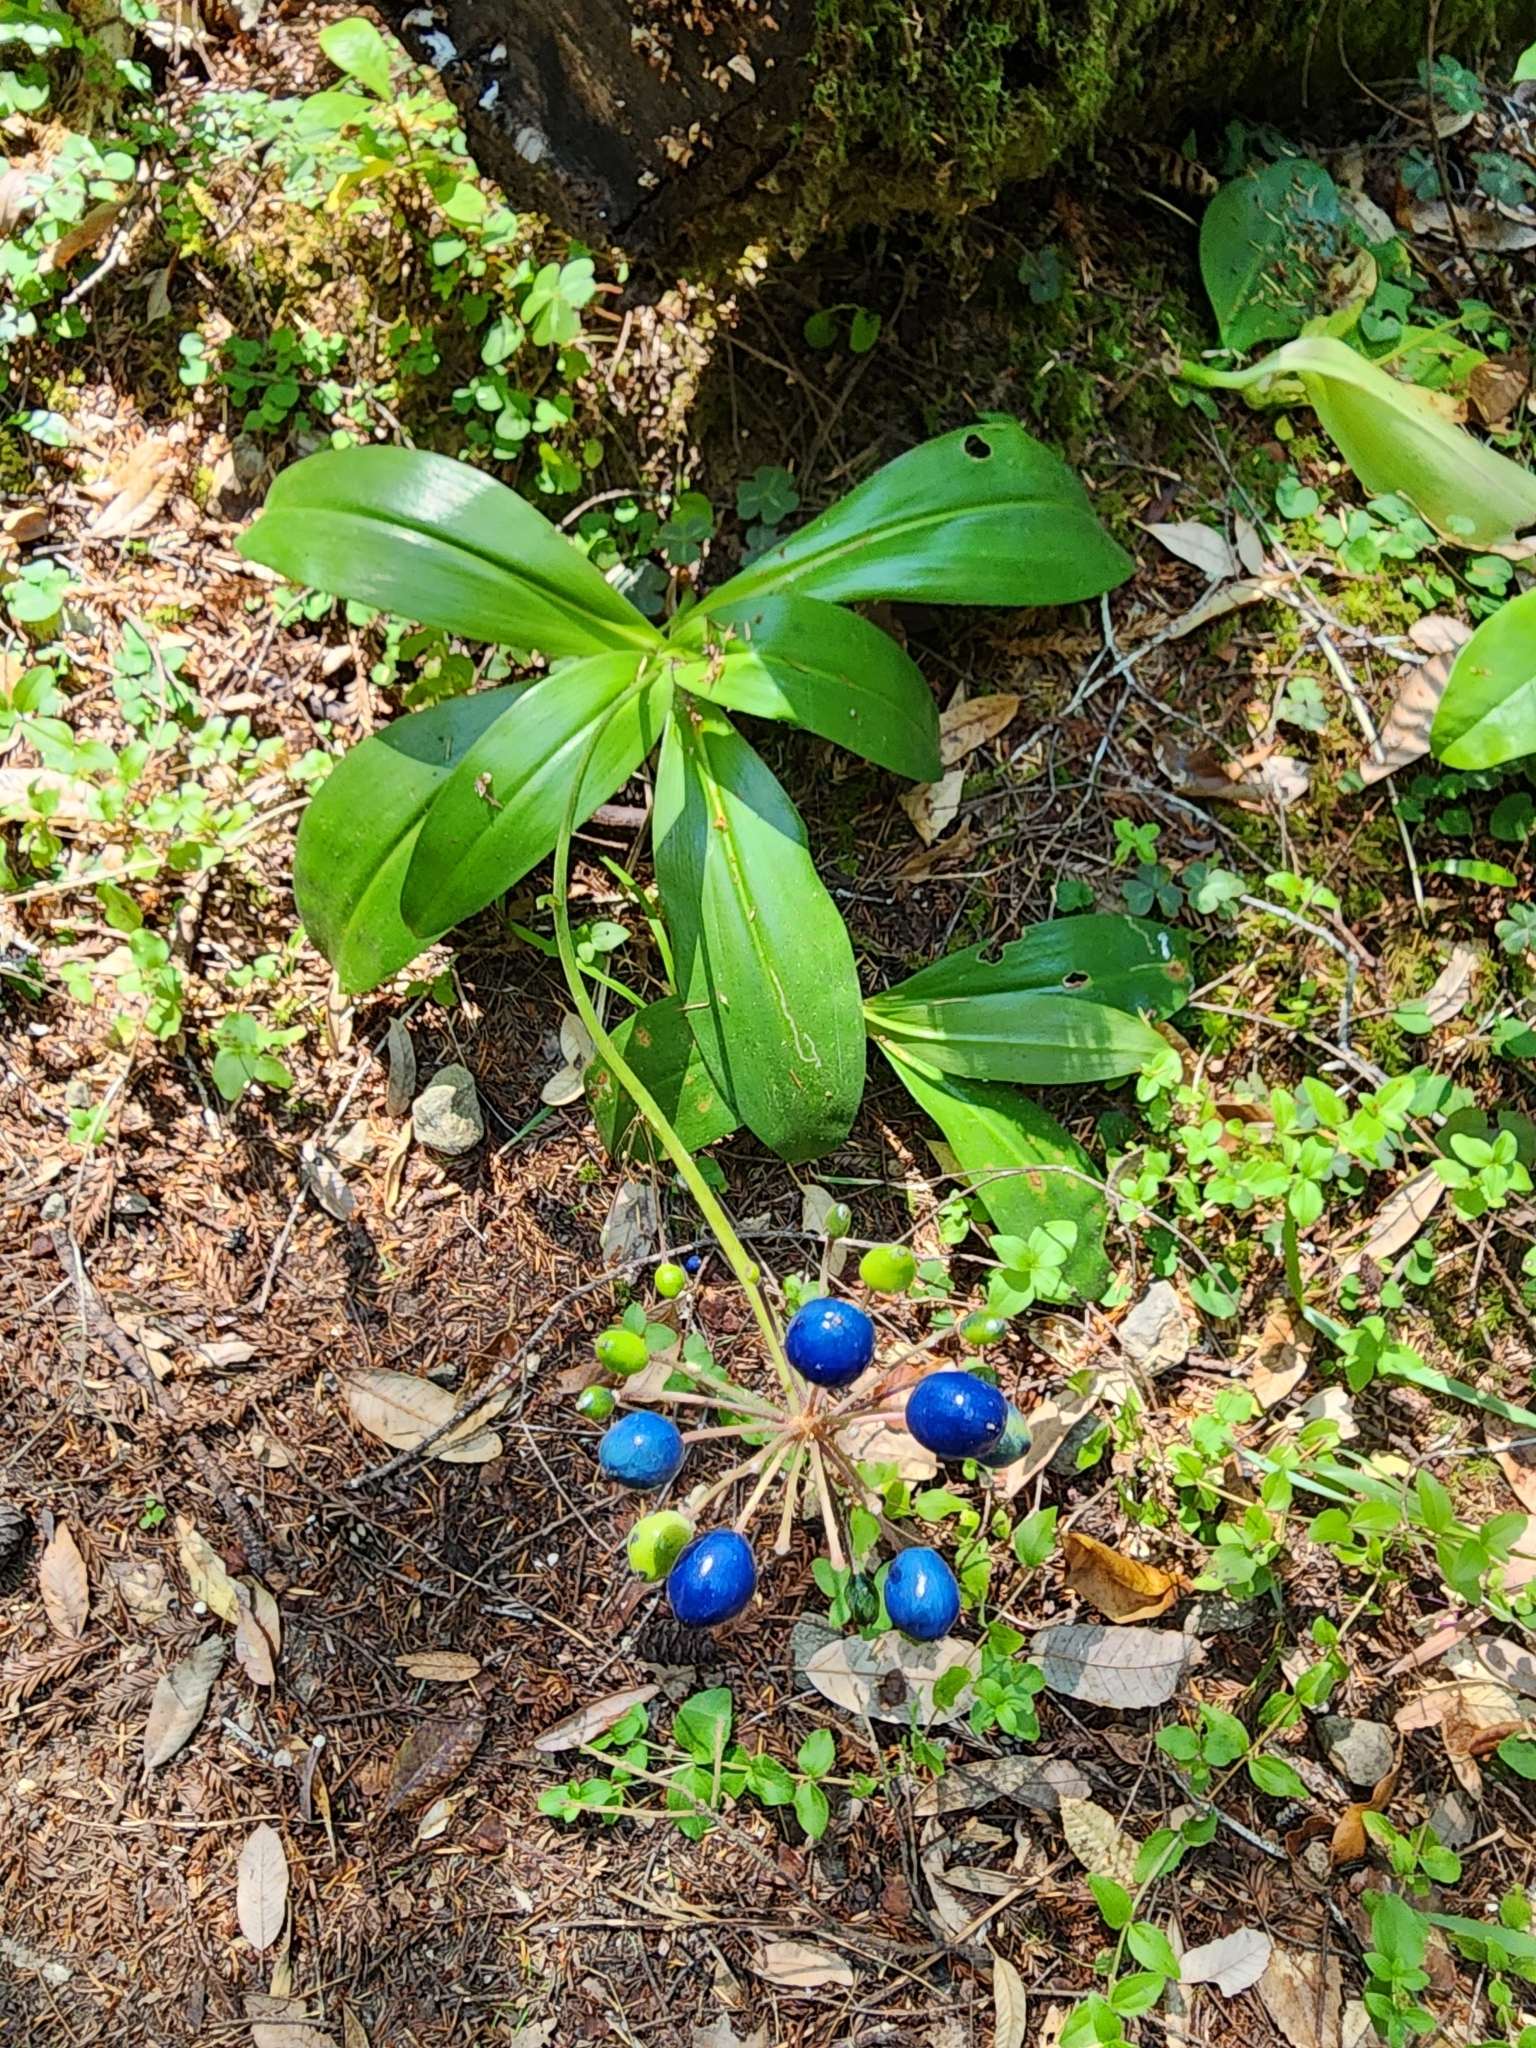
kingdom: Plantae
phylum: Tracheophyta
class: Liliopsida
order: Liliales
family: Liliaceae
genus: Clintonia
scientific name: Clintonia andrewsiana
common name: Red clintonia
